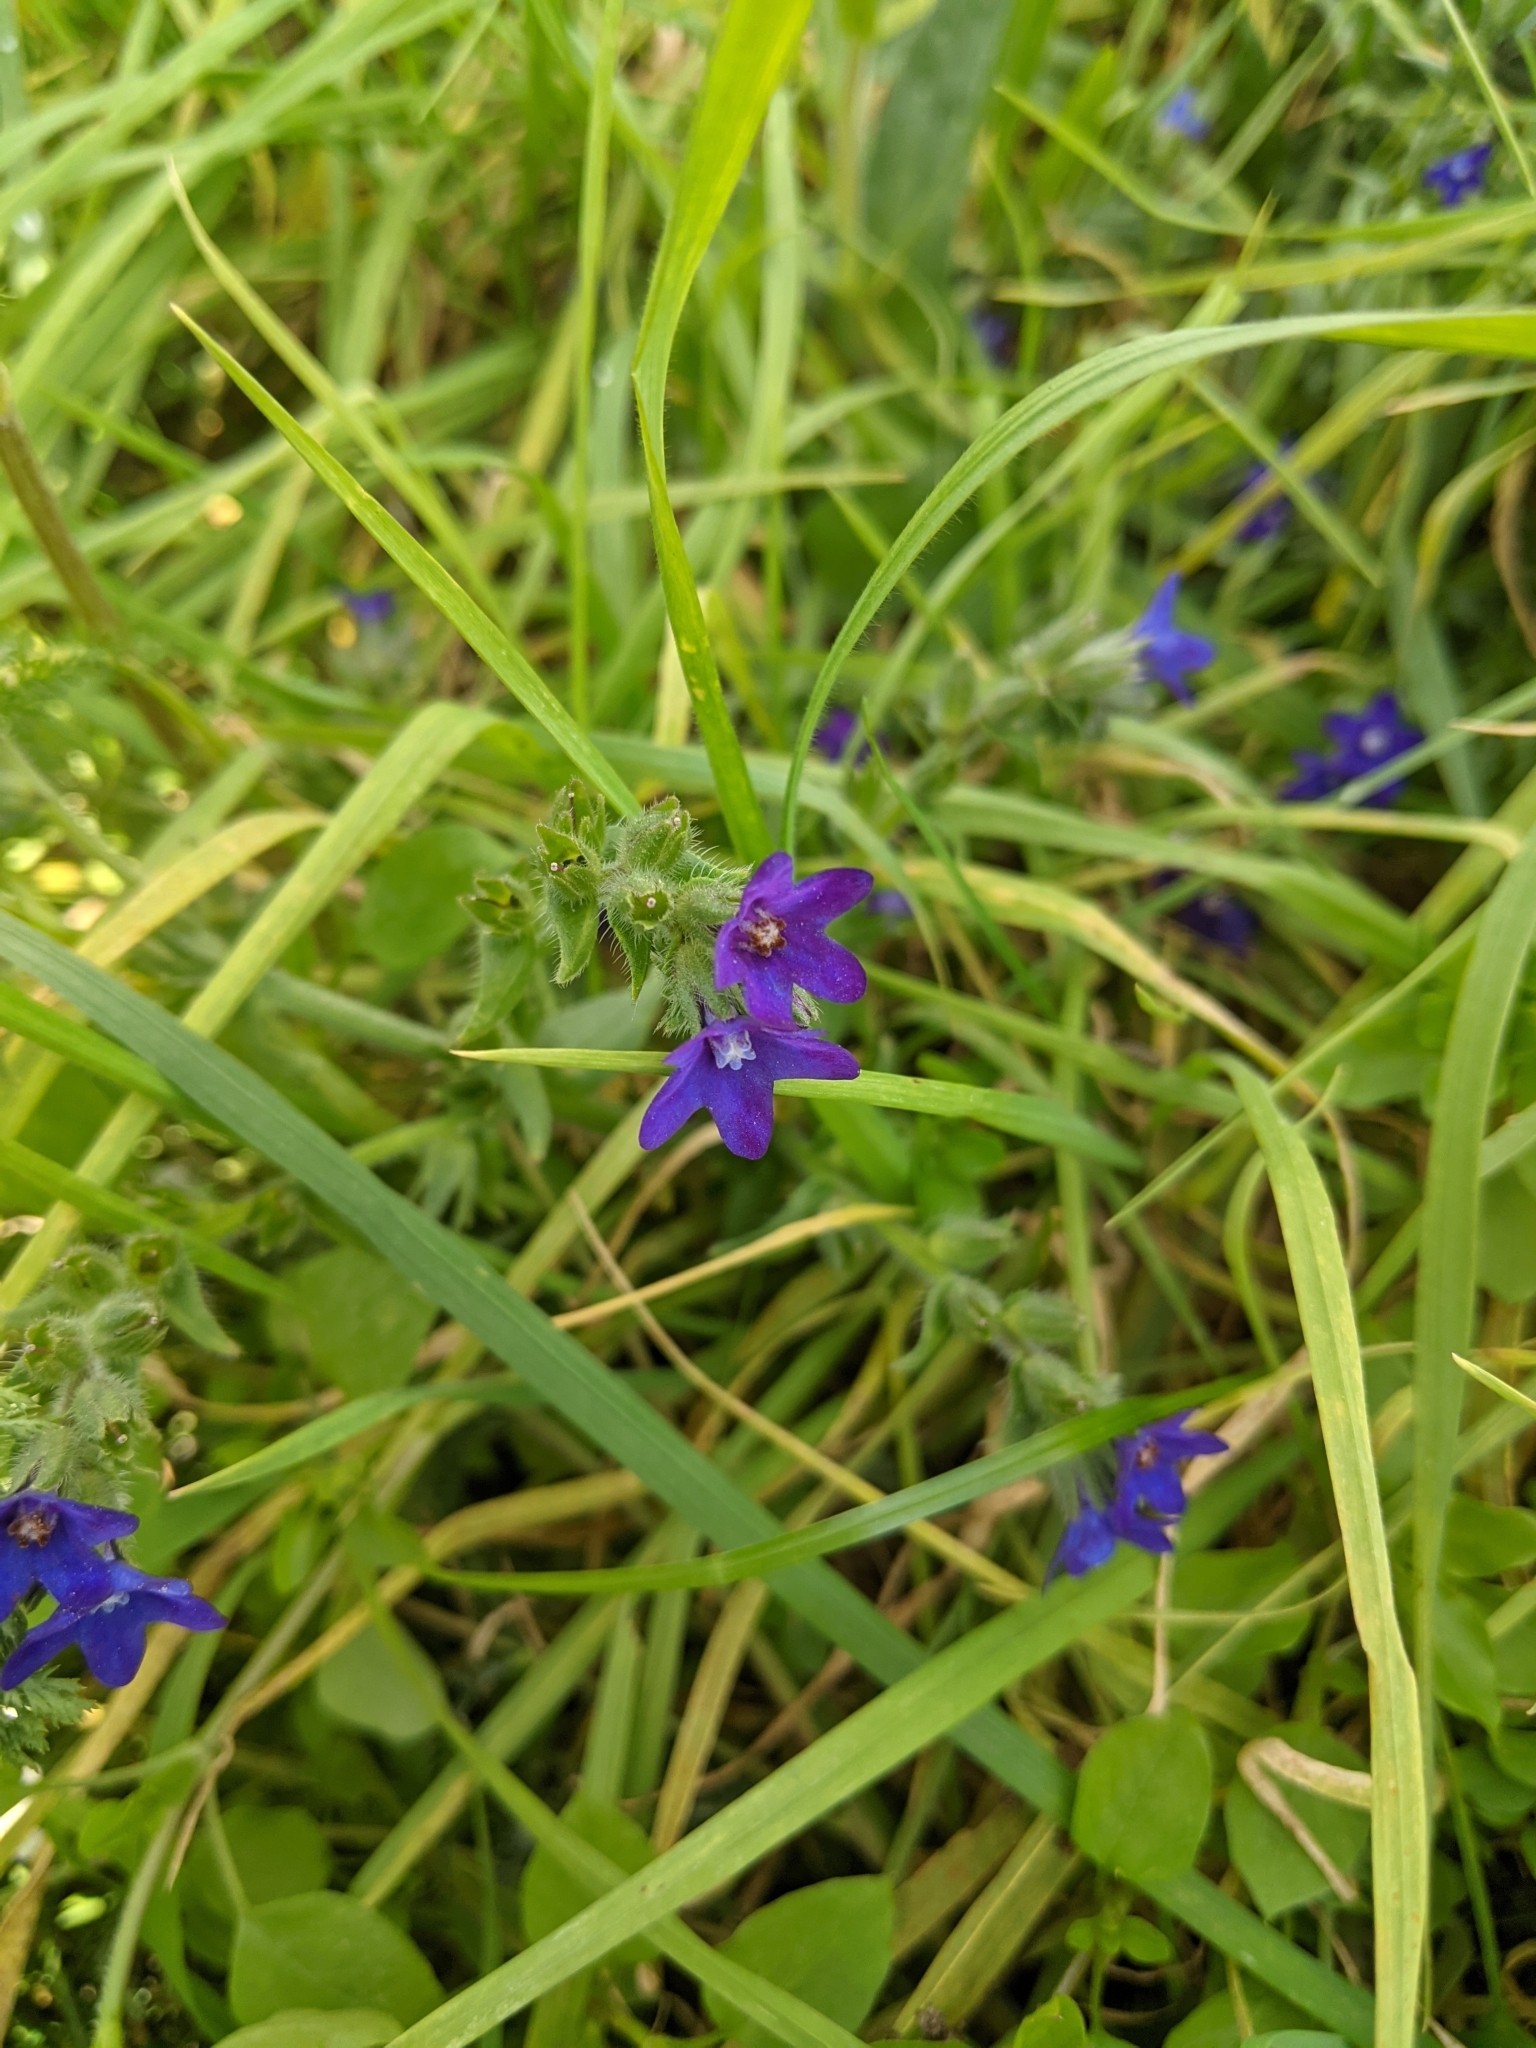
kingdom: Plantae
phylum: Tracheophyta
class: Magnoliopsida
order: Boraginales
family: Boraginaceae
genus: Anchusa
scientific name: Anchusa officinalis
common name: Alkanet
